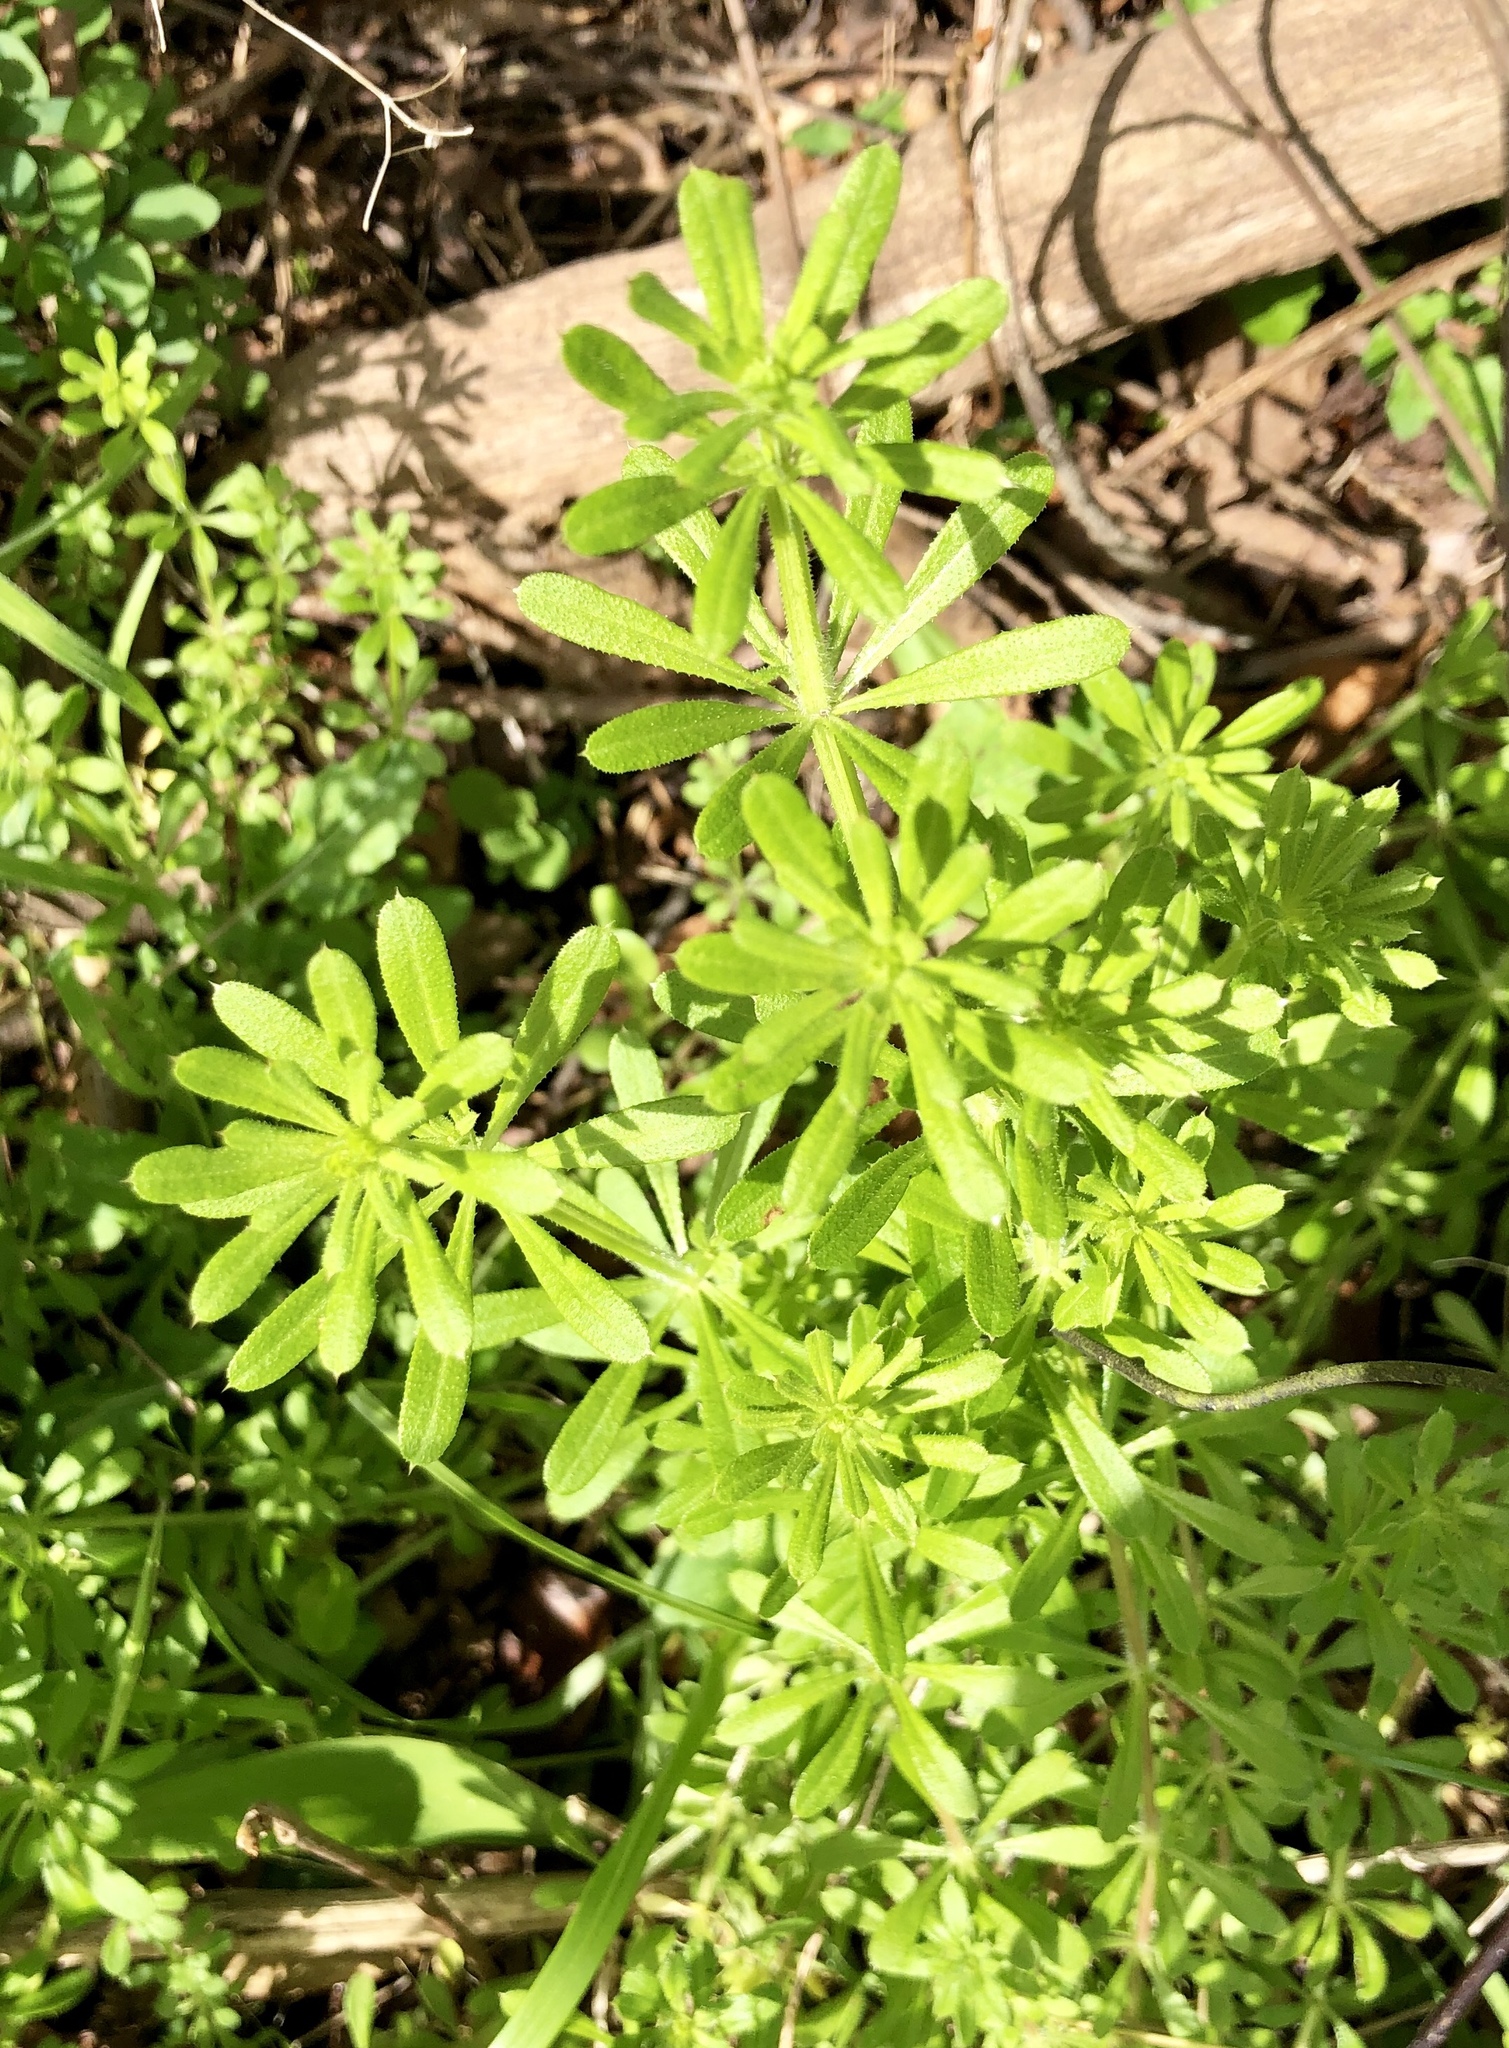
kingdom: Plantae
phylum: Tracheophyta
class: Magnoliopsida
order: Gentianales
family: Rubiaceae
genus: Galium
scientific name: Galium aparine
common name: Cleavers
